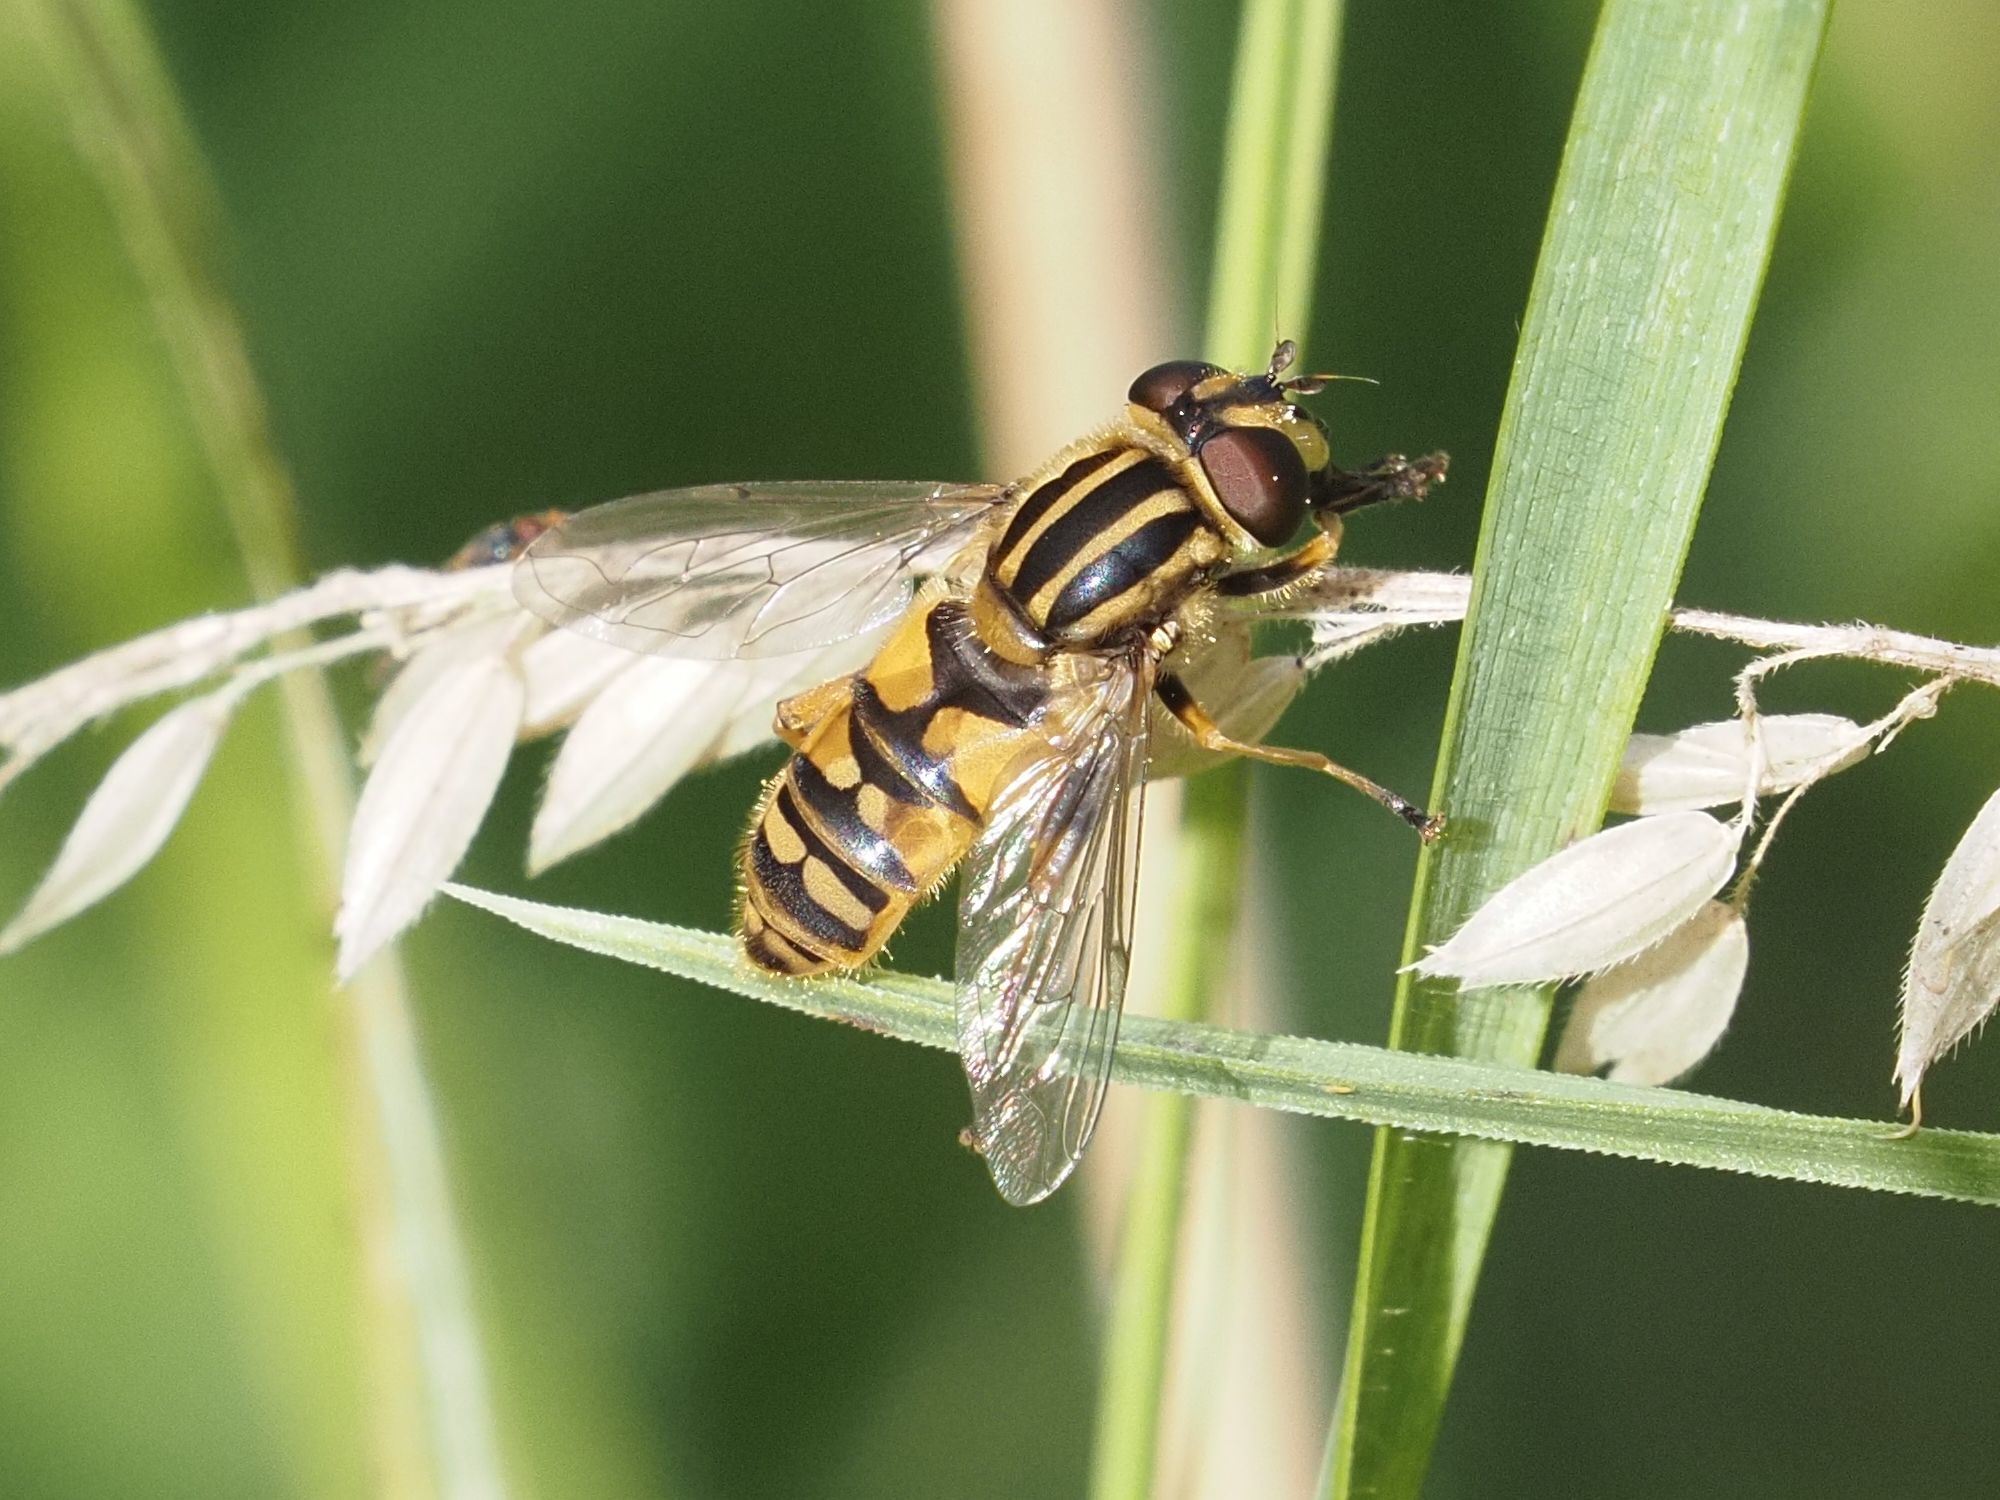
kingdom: Animalia
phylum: Arthropoda
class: Insecta
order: Diptera
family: Syrphidae
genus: Helophilus
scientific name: Helophilus pendulus
